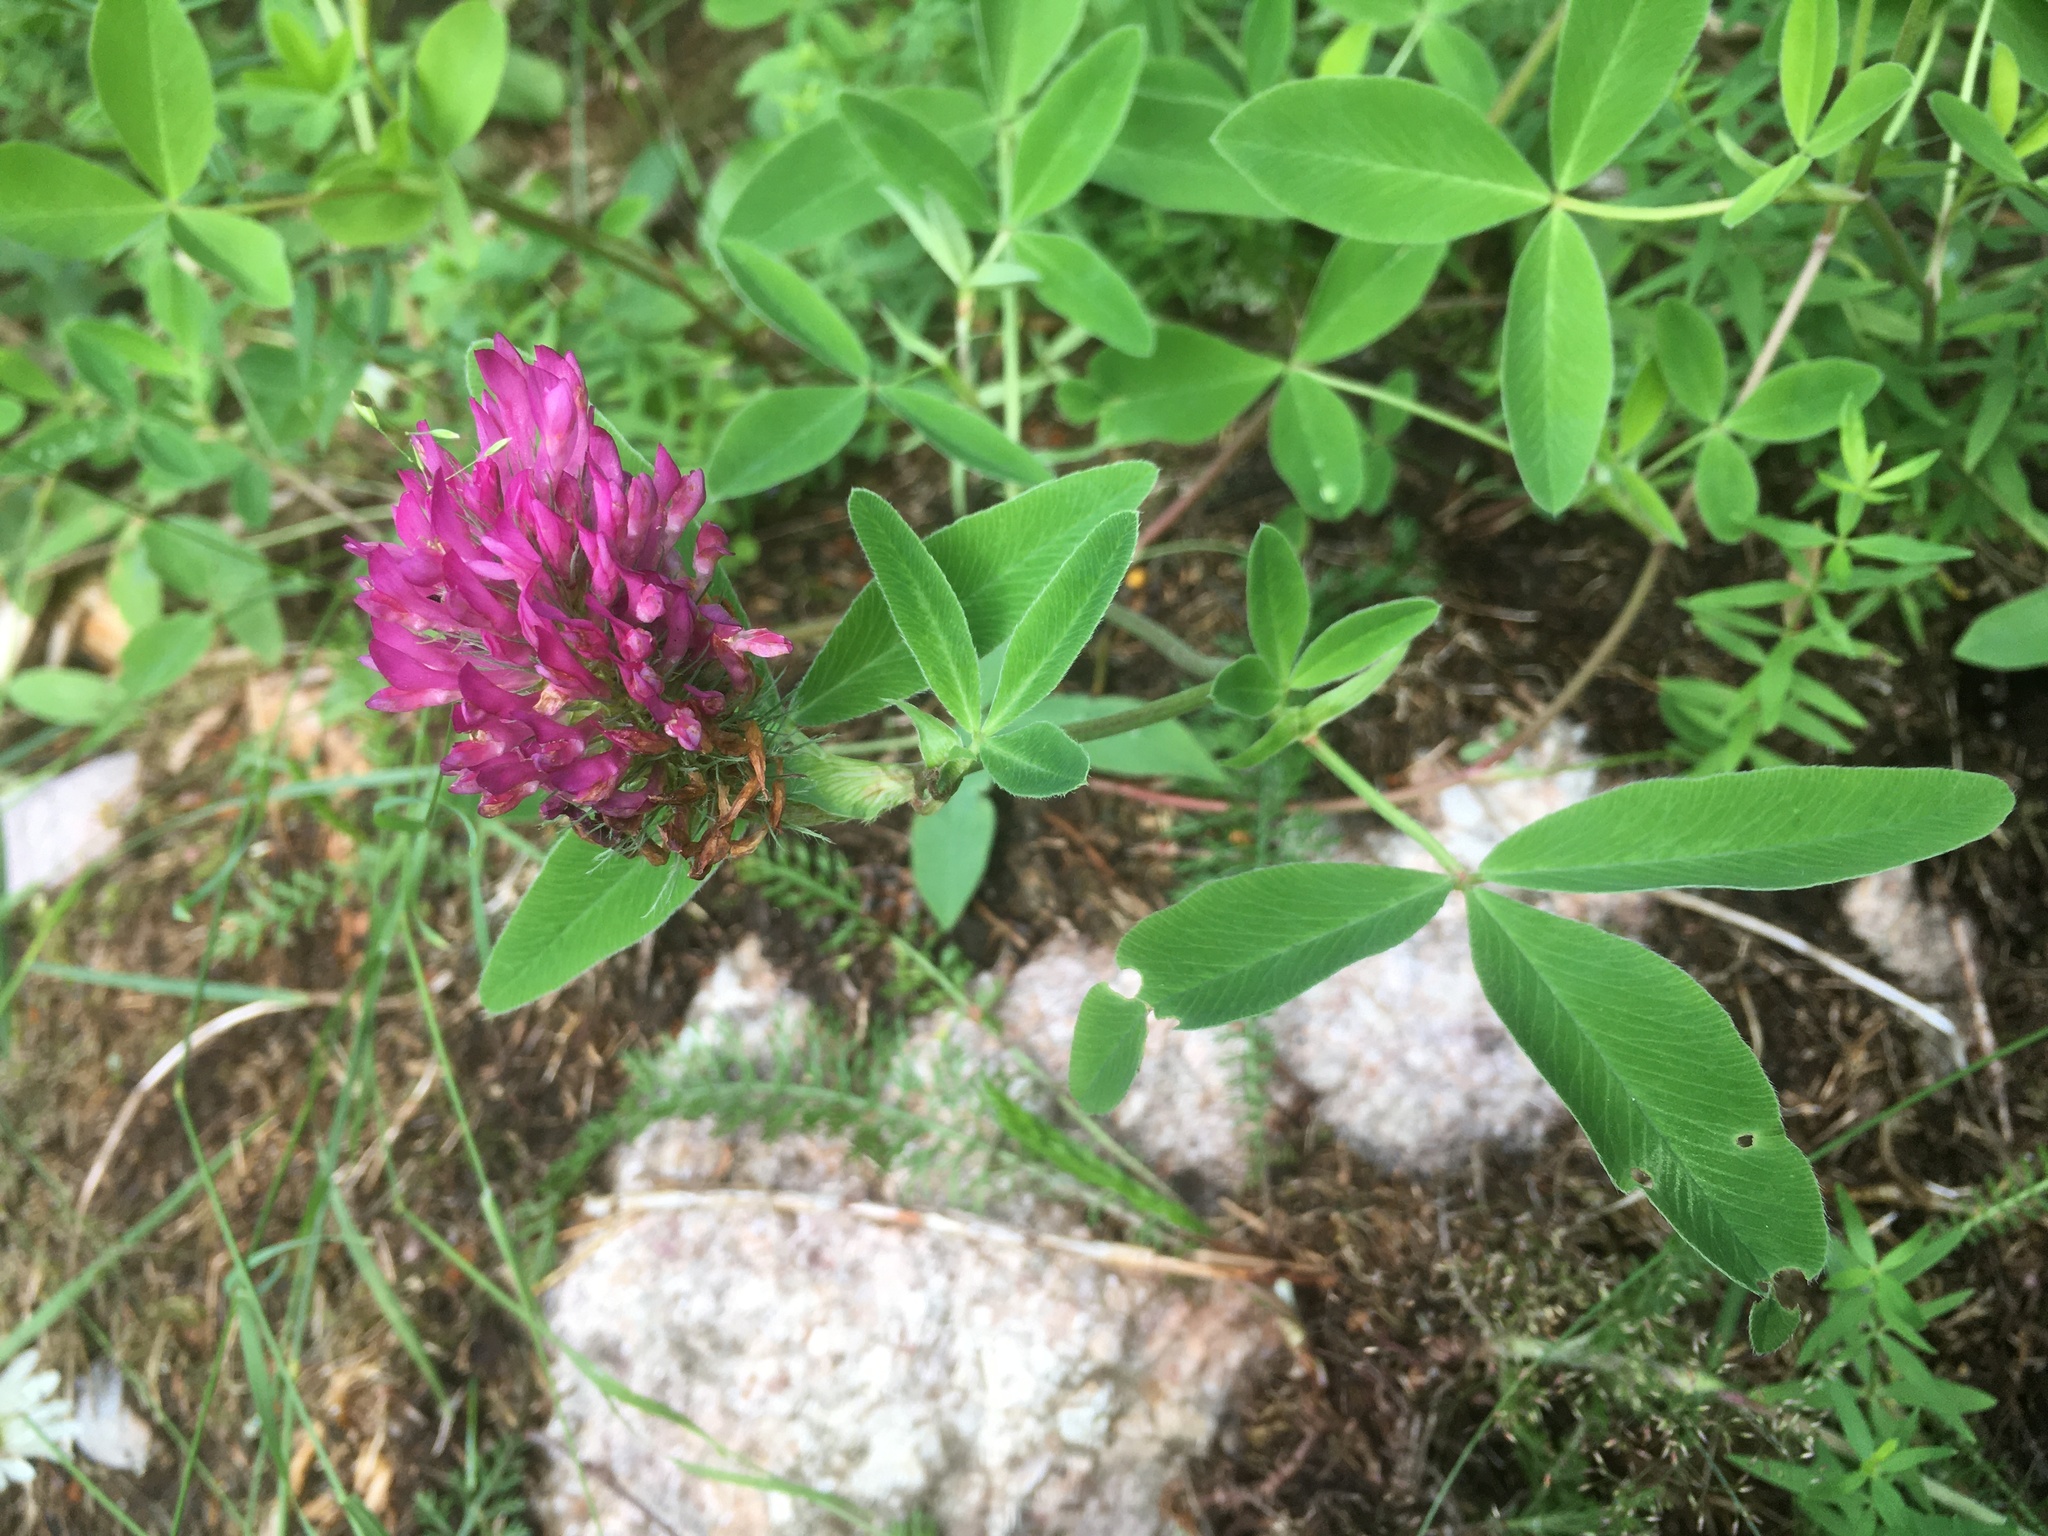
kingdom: Plantae
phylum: Tracheophyta
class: Magnoliopsida
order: Fabales
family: Fabaceae
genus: Trifolium
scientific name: Trifolium medium
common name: Zigzag clover
